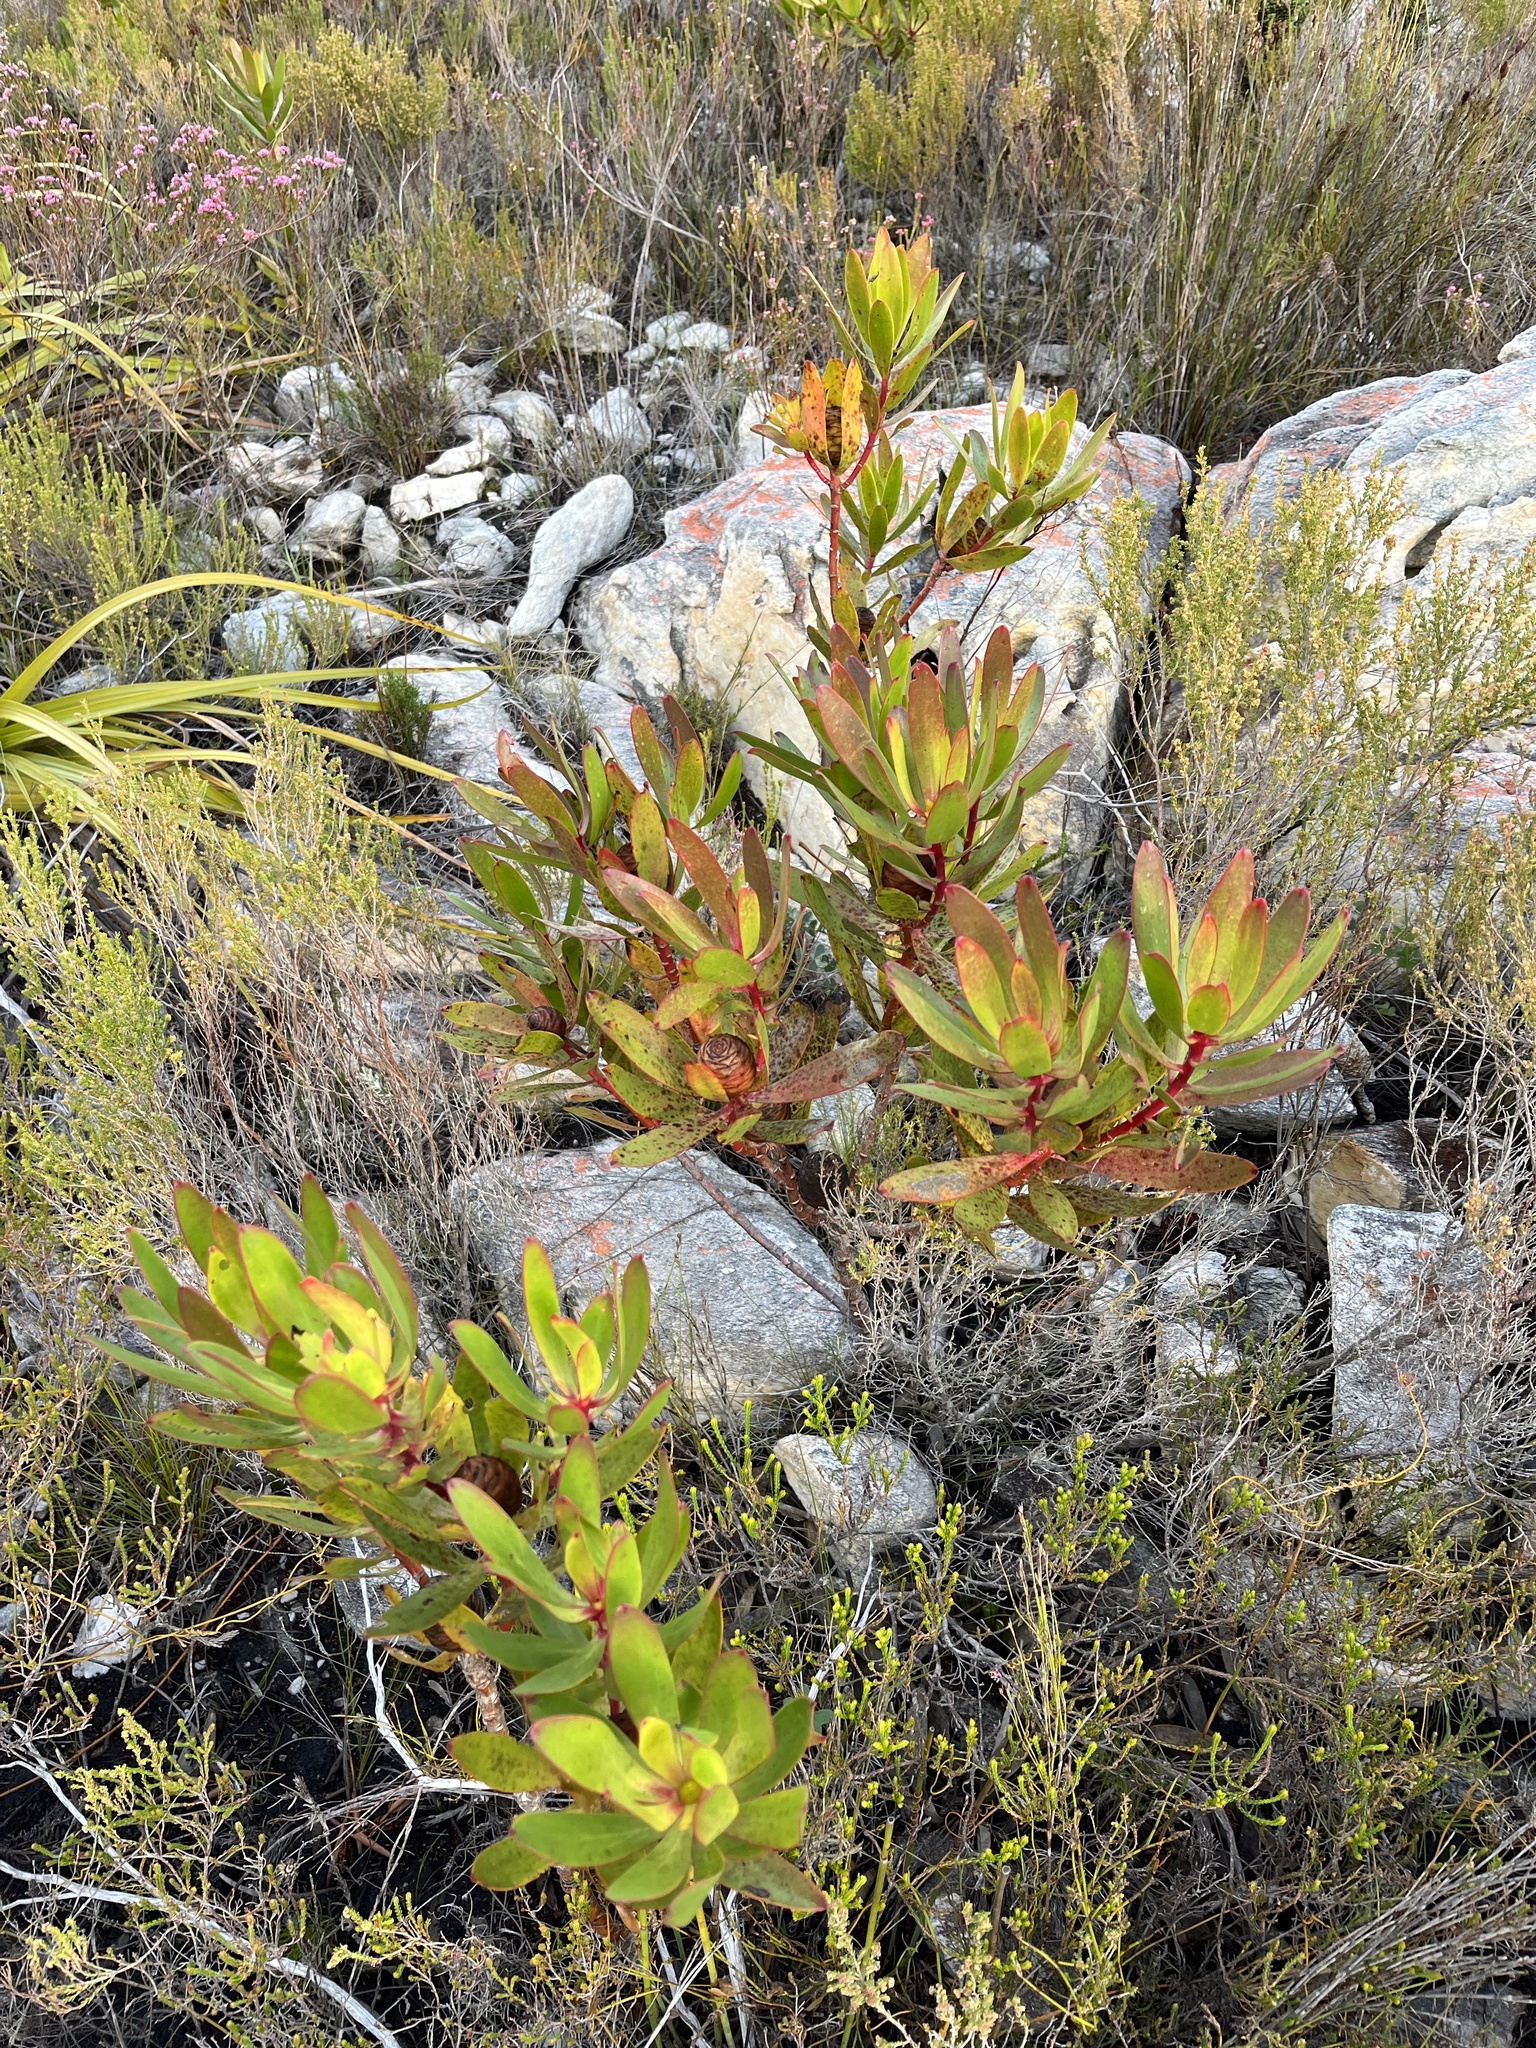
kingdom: Plantae
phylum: Tracheophyta
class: Magnoliopsida
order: Proteales
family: Proteaceae
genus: Leucadendron
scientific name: Leucadendron gandogeri
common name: Broad-leaf conebush
